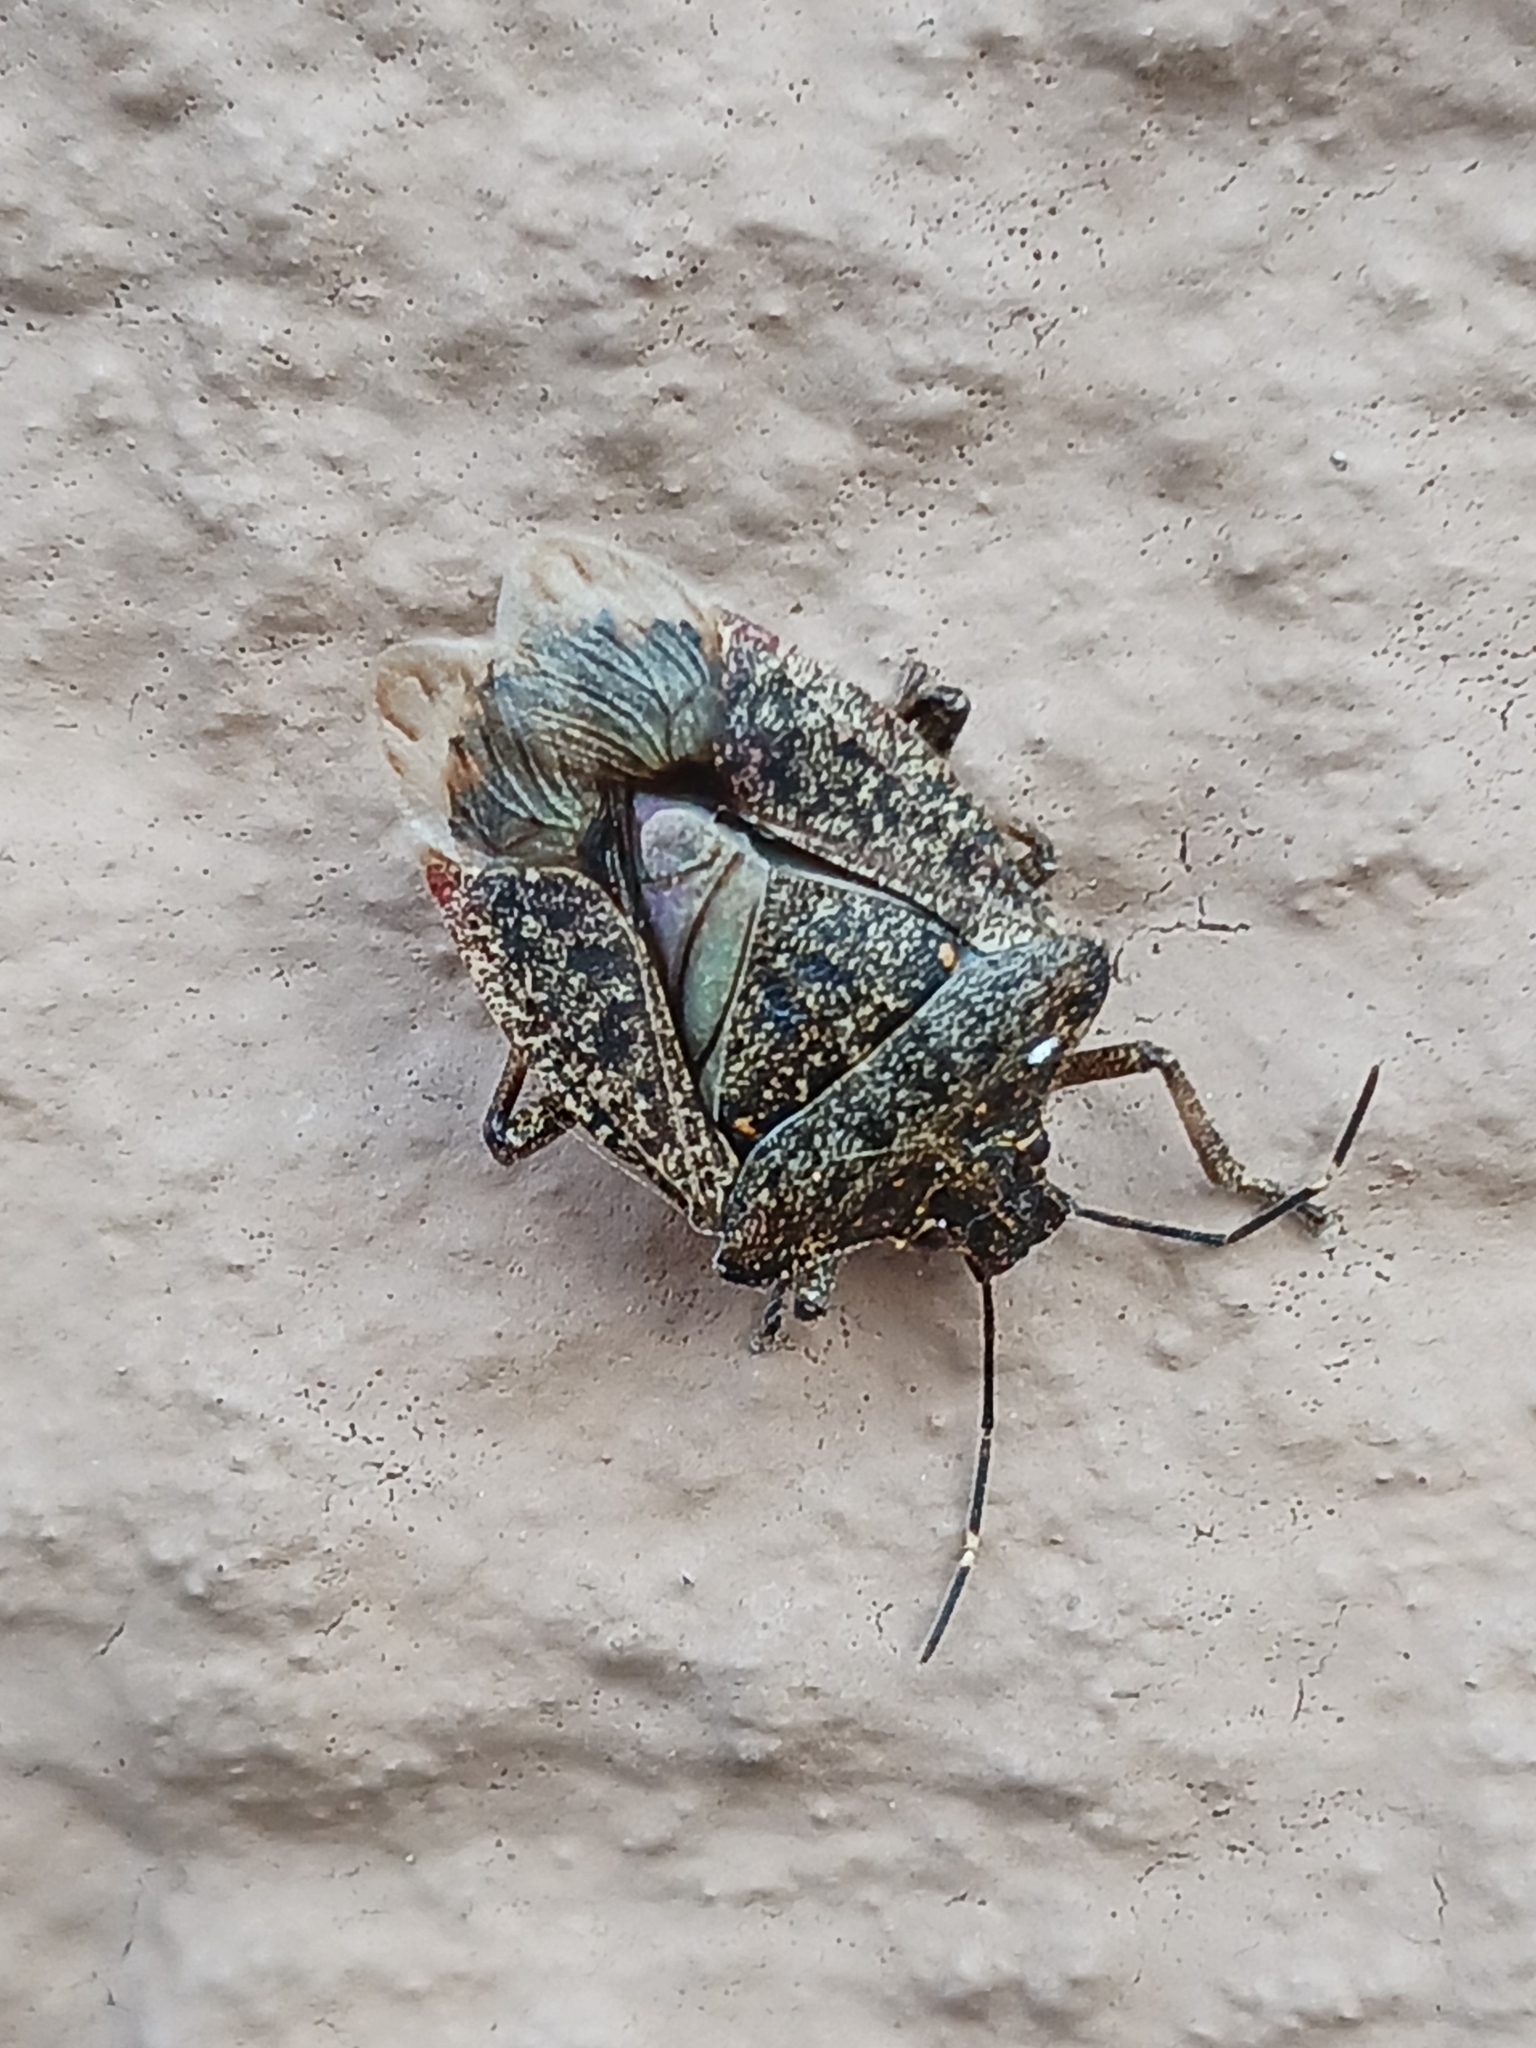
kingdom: Animalia
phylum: Arthropoda
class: Insecta
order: Hemiptera
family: Pentatomidae
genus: Halyomorpha
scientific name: Halyomorpha halys
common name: Brown marmorated stink bug
